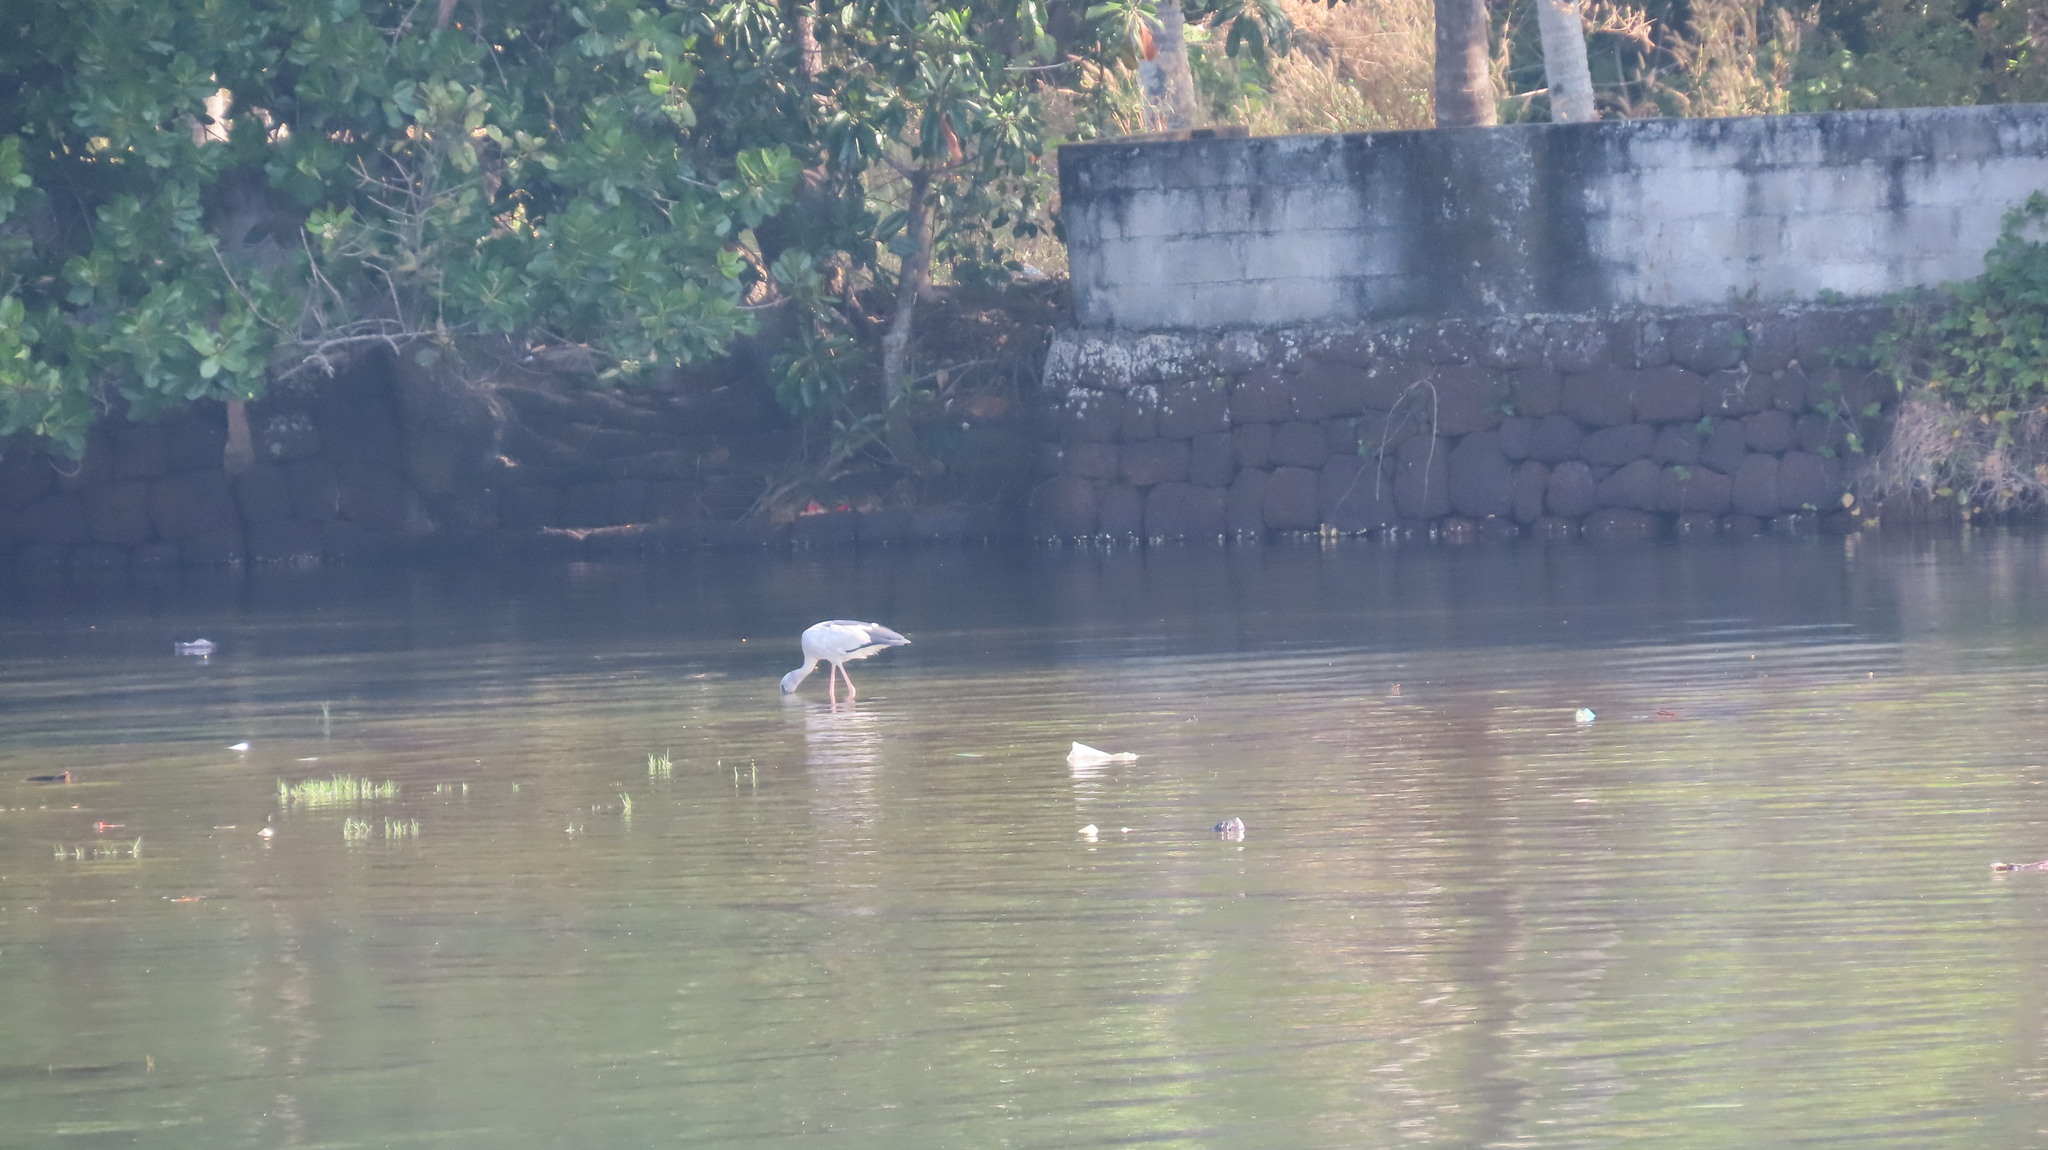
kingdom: Animalia
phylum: Chordata
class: Aves
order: Ciconiiformes
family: Ciconiidae
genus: Anastomus
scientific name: Anastomus oscitans
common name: Asian openbill
